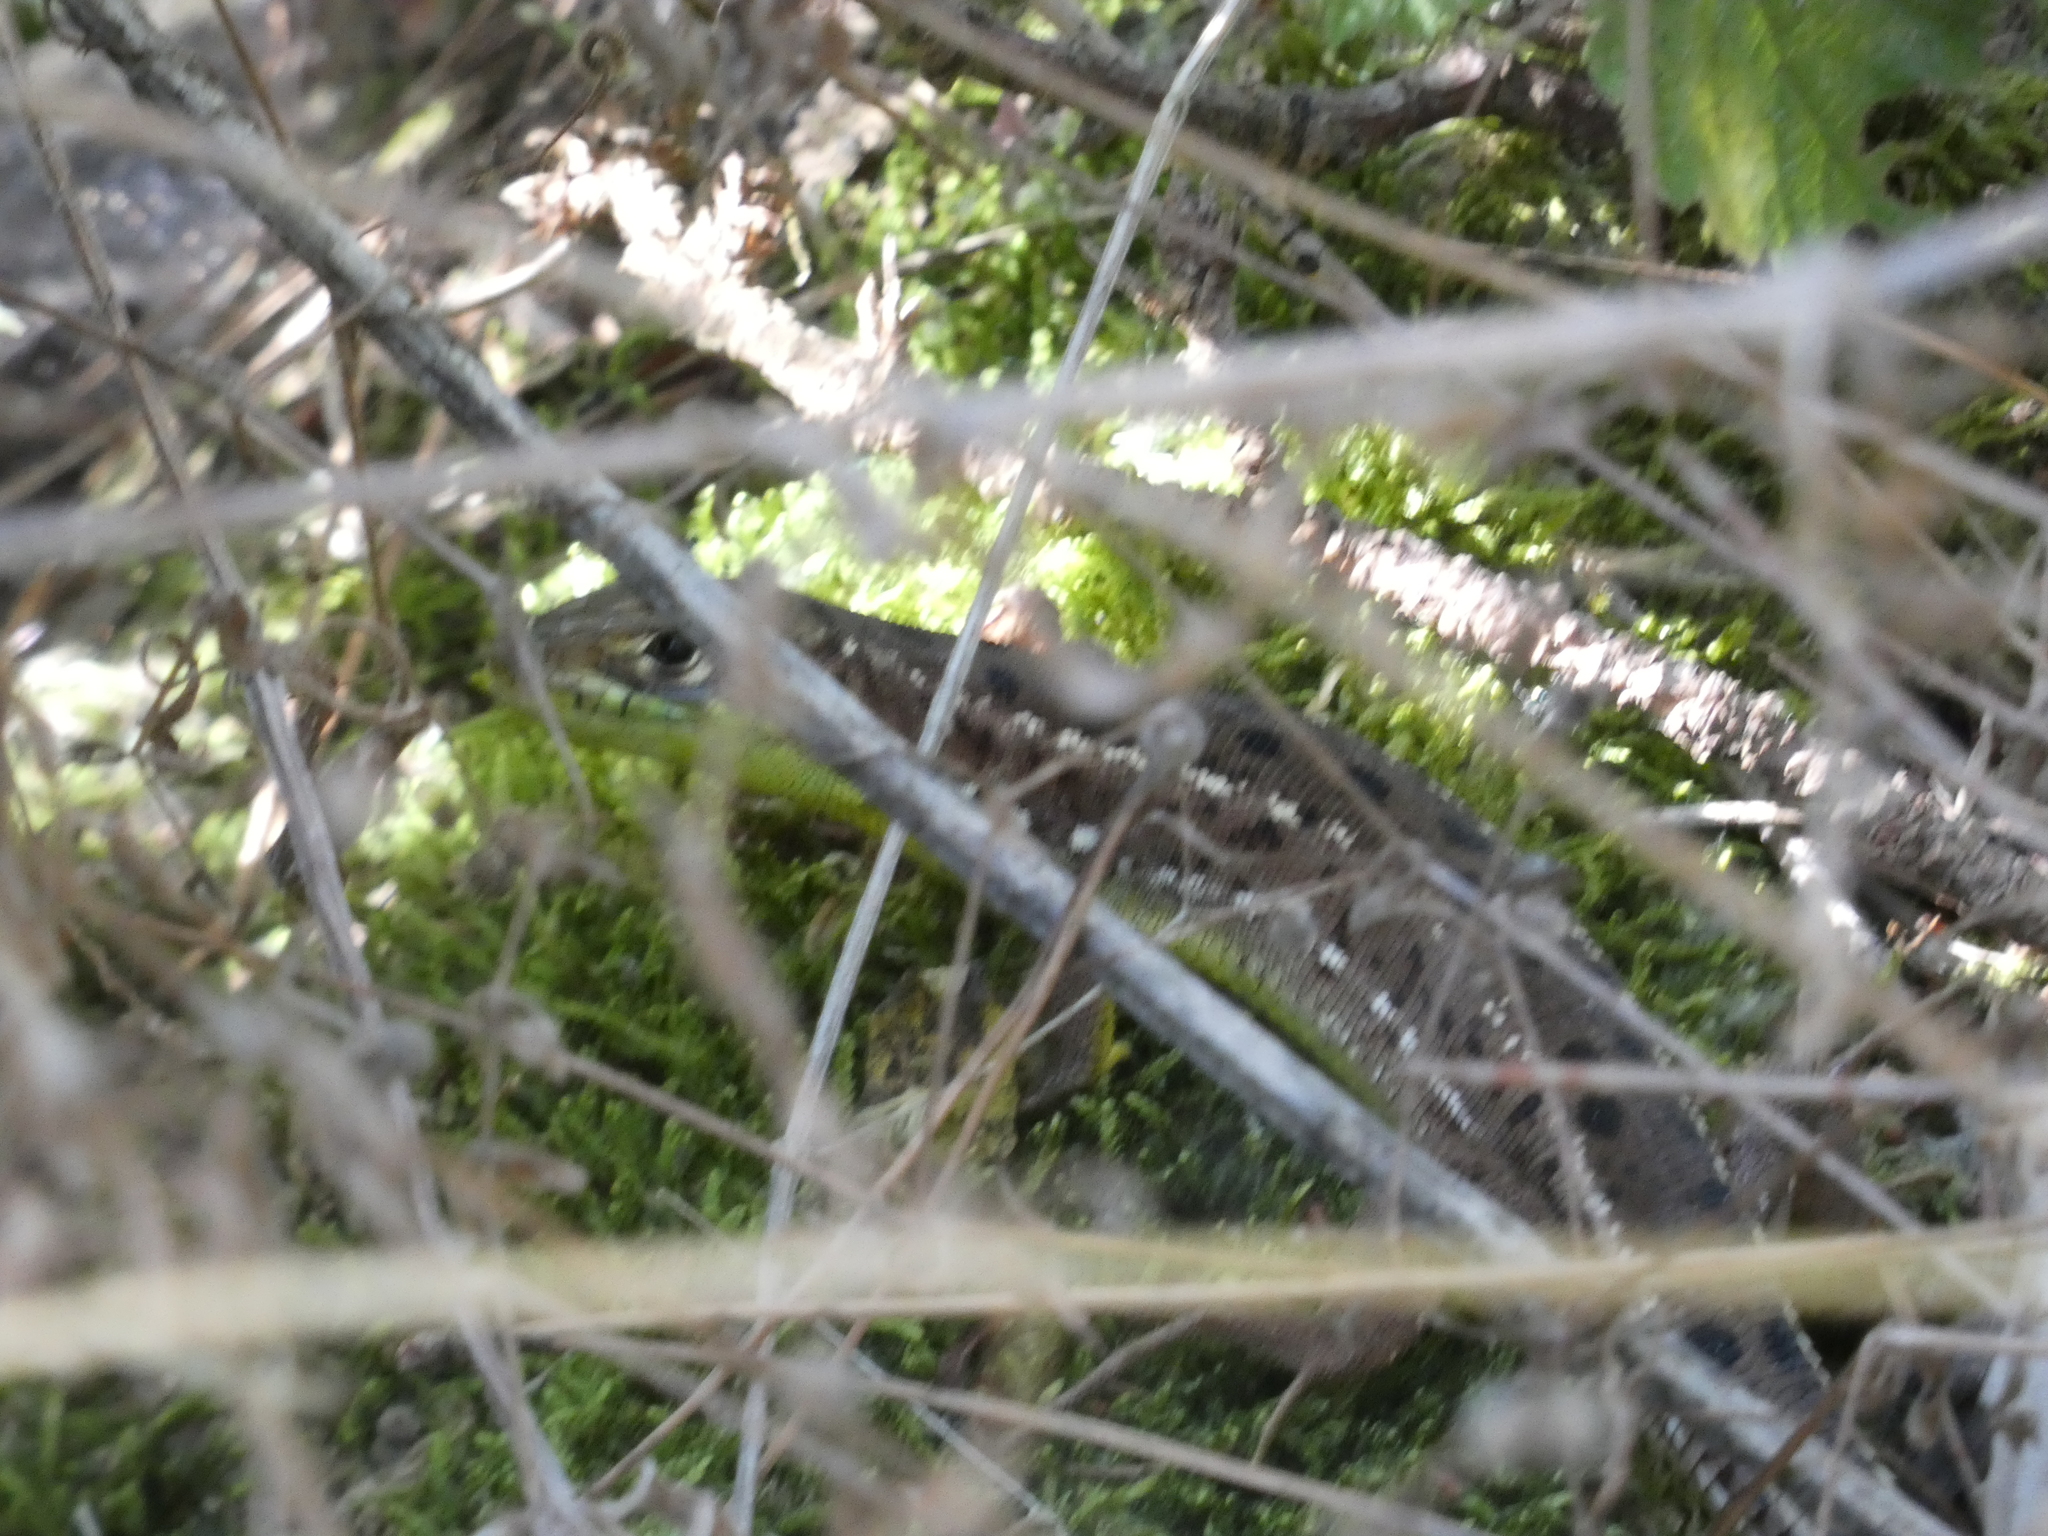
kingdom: Animalia
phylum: Chordata
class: Squamata
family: Lacertidae
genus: Lacerta
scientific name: Lacerta bilineata
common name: Western green lizard
